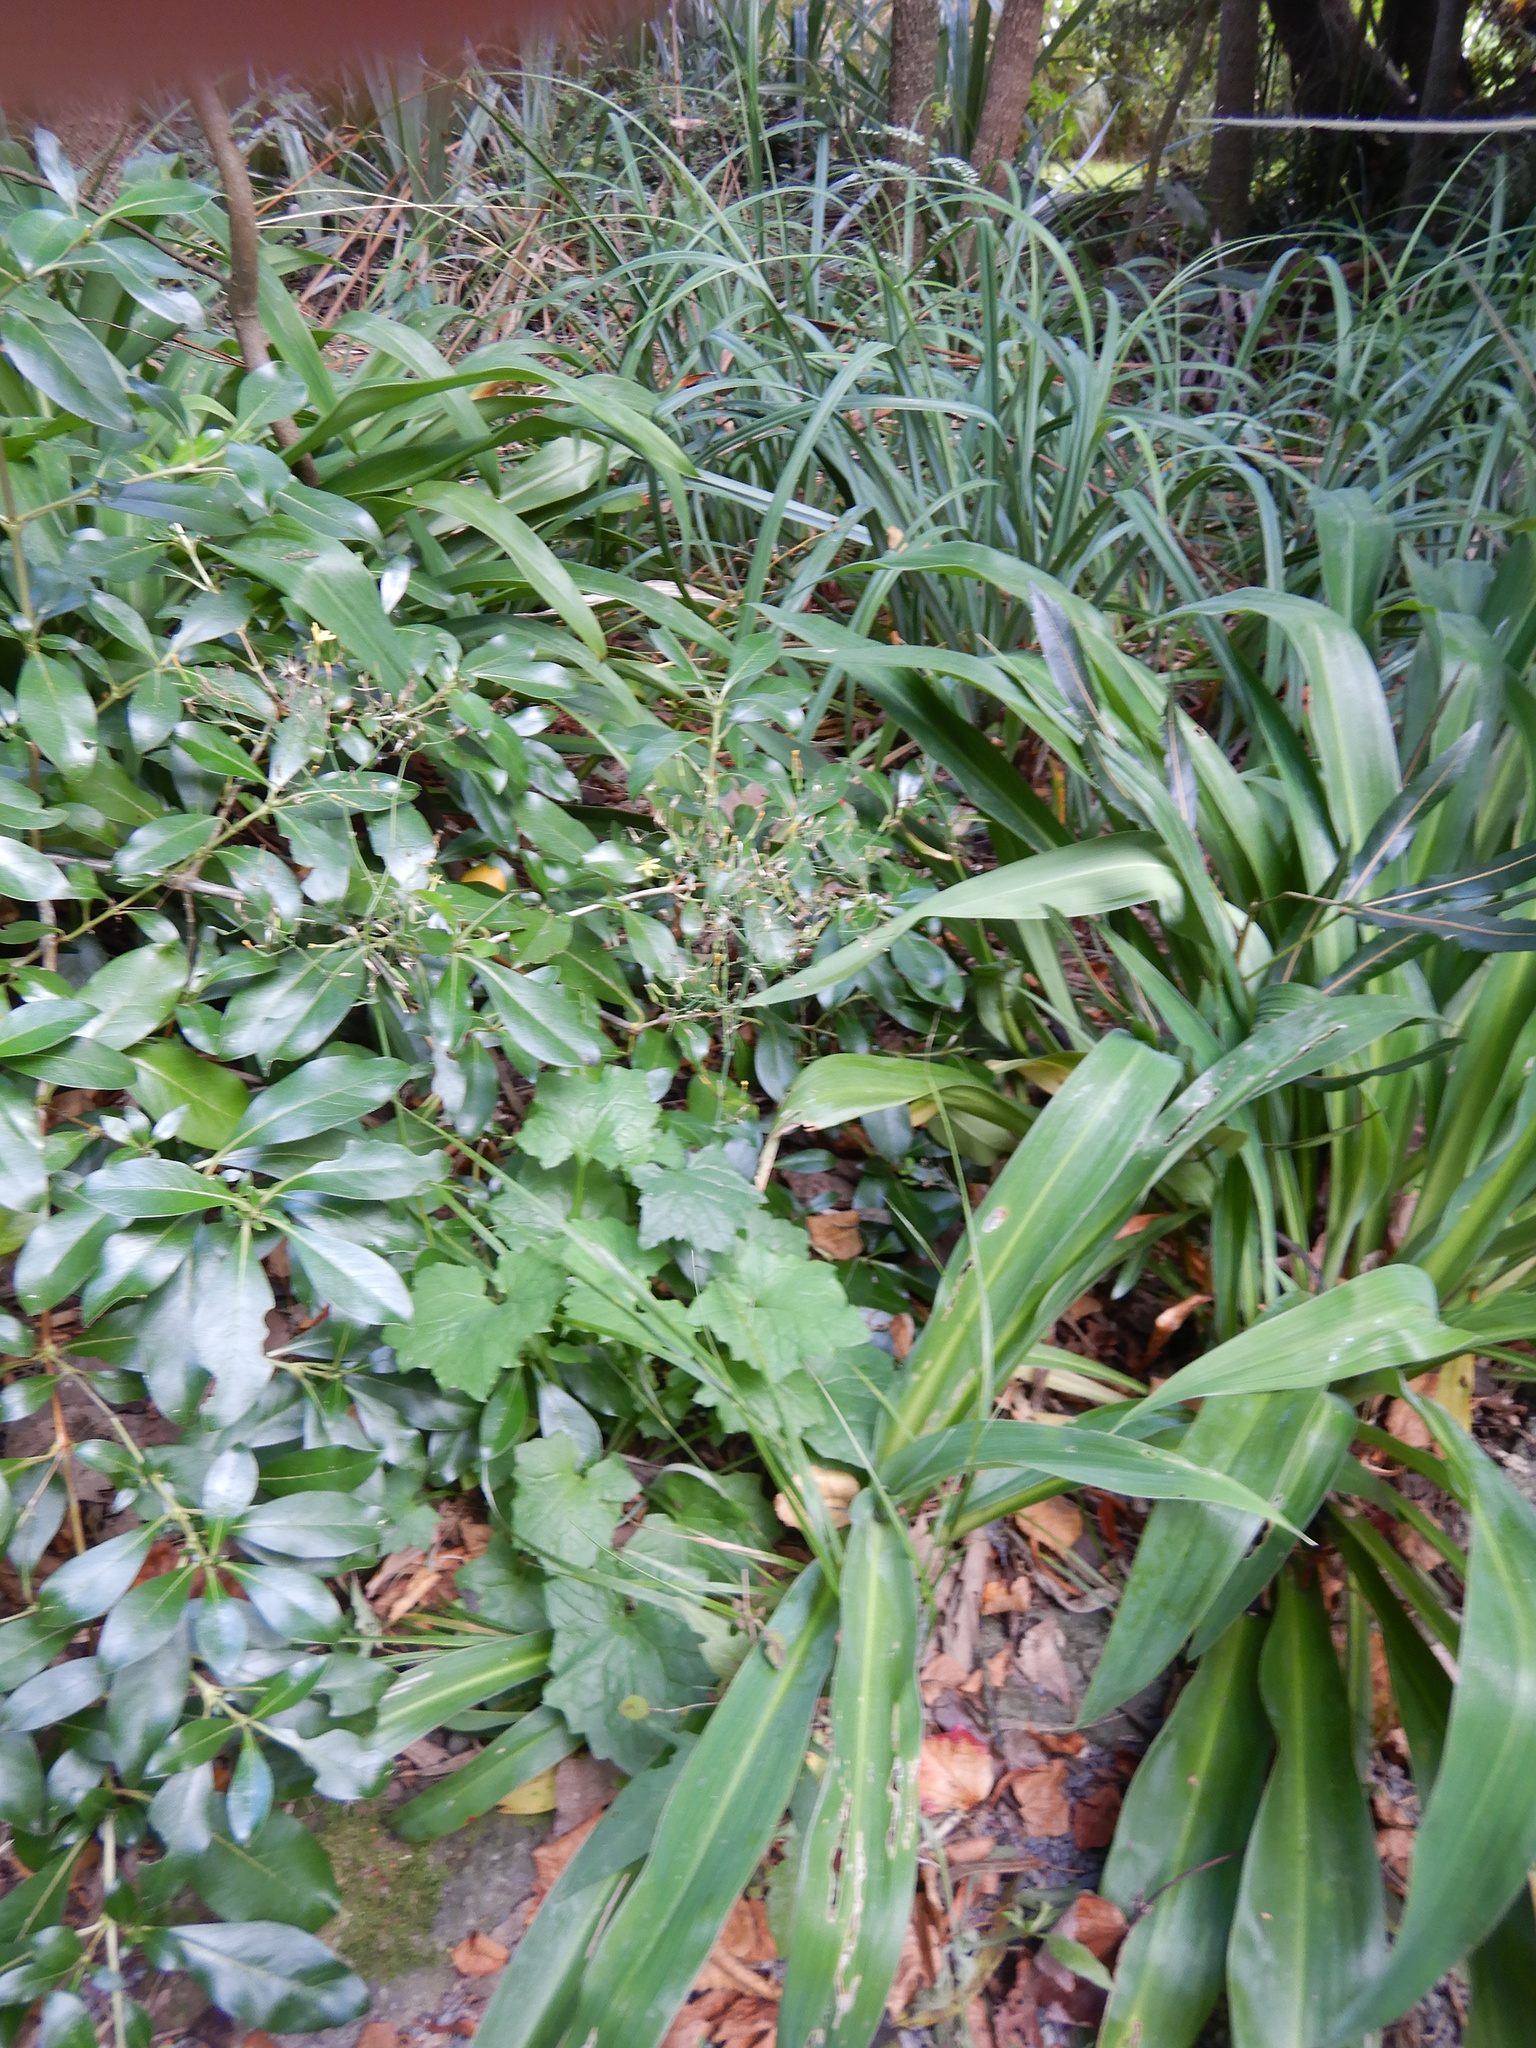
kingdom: Plantae
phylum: Tracheophyta
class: Magnoliopsida
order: Asterales
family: Asteraceae
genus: Mycelis
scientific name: Mycelis muralis
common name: Wall lettuce
